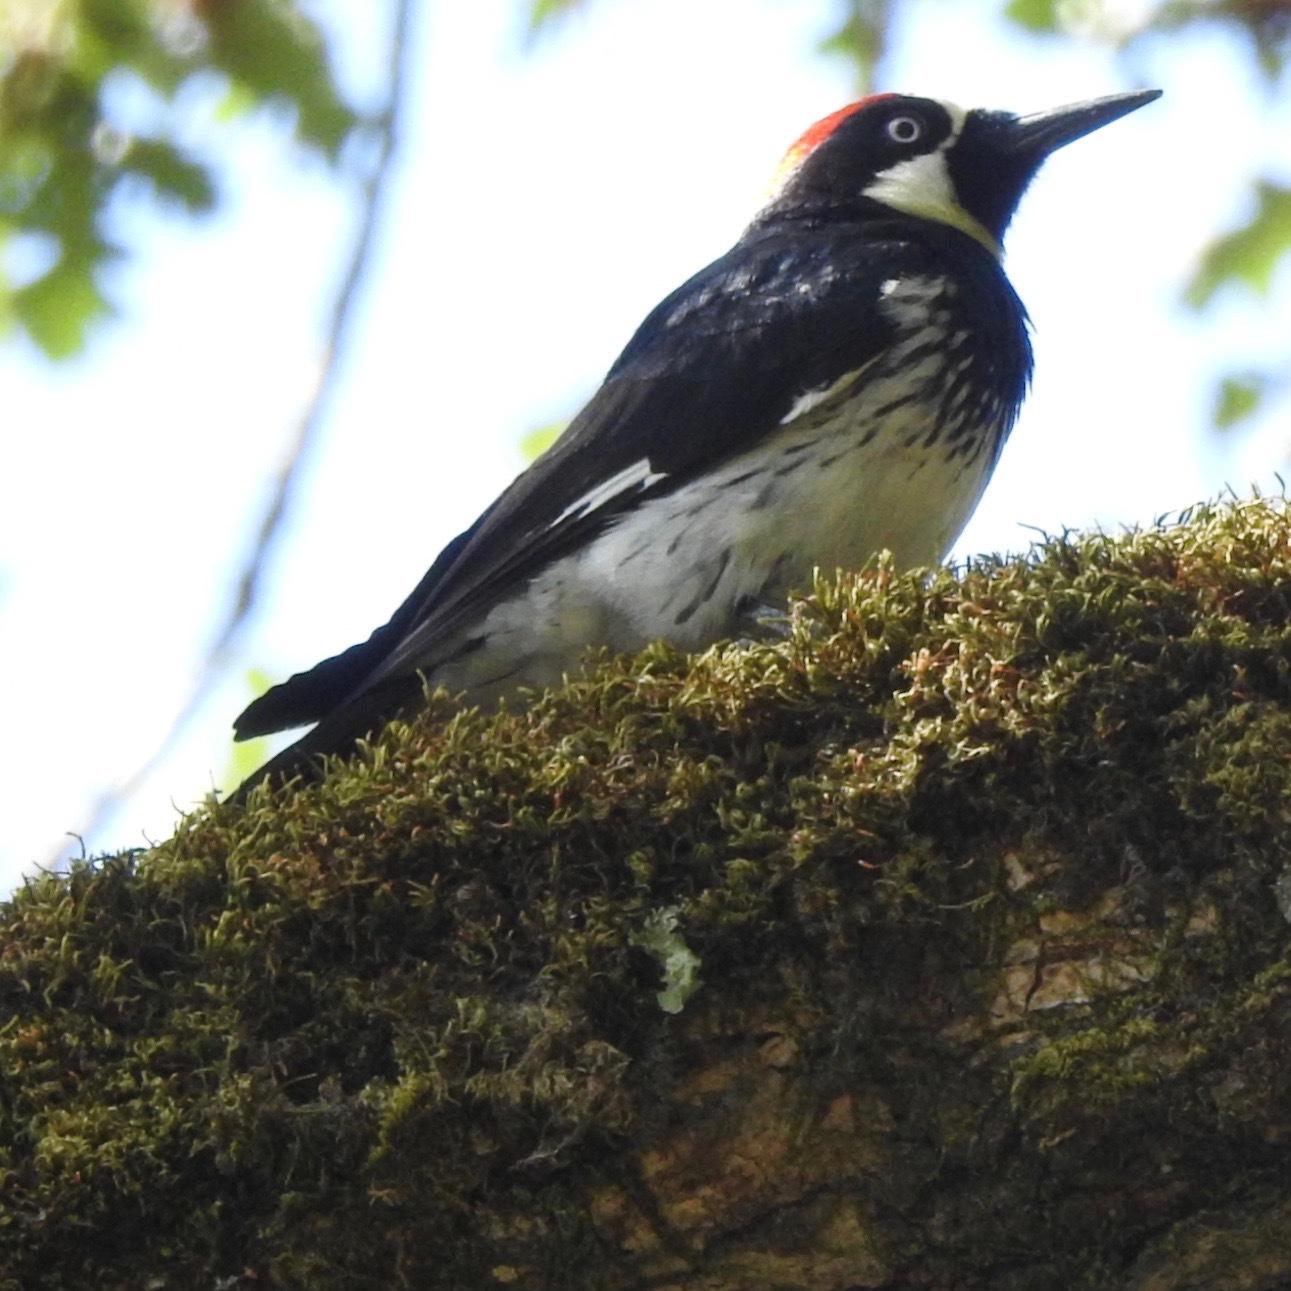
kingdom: Animalia
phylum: Chordata
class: Aves
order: Piciformes
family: Picidae
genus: Melanerpes
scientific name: Melanerpes formicivorus
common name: Acorn woodpecker
